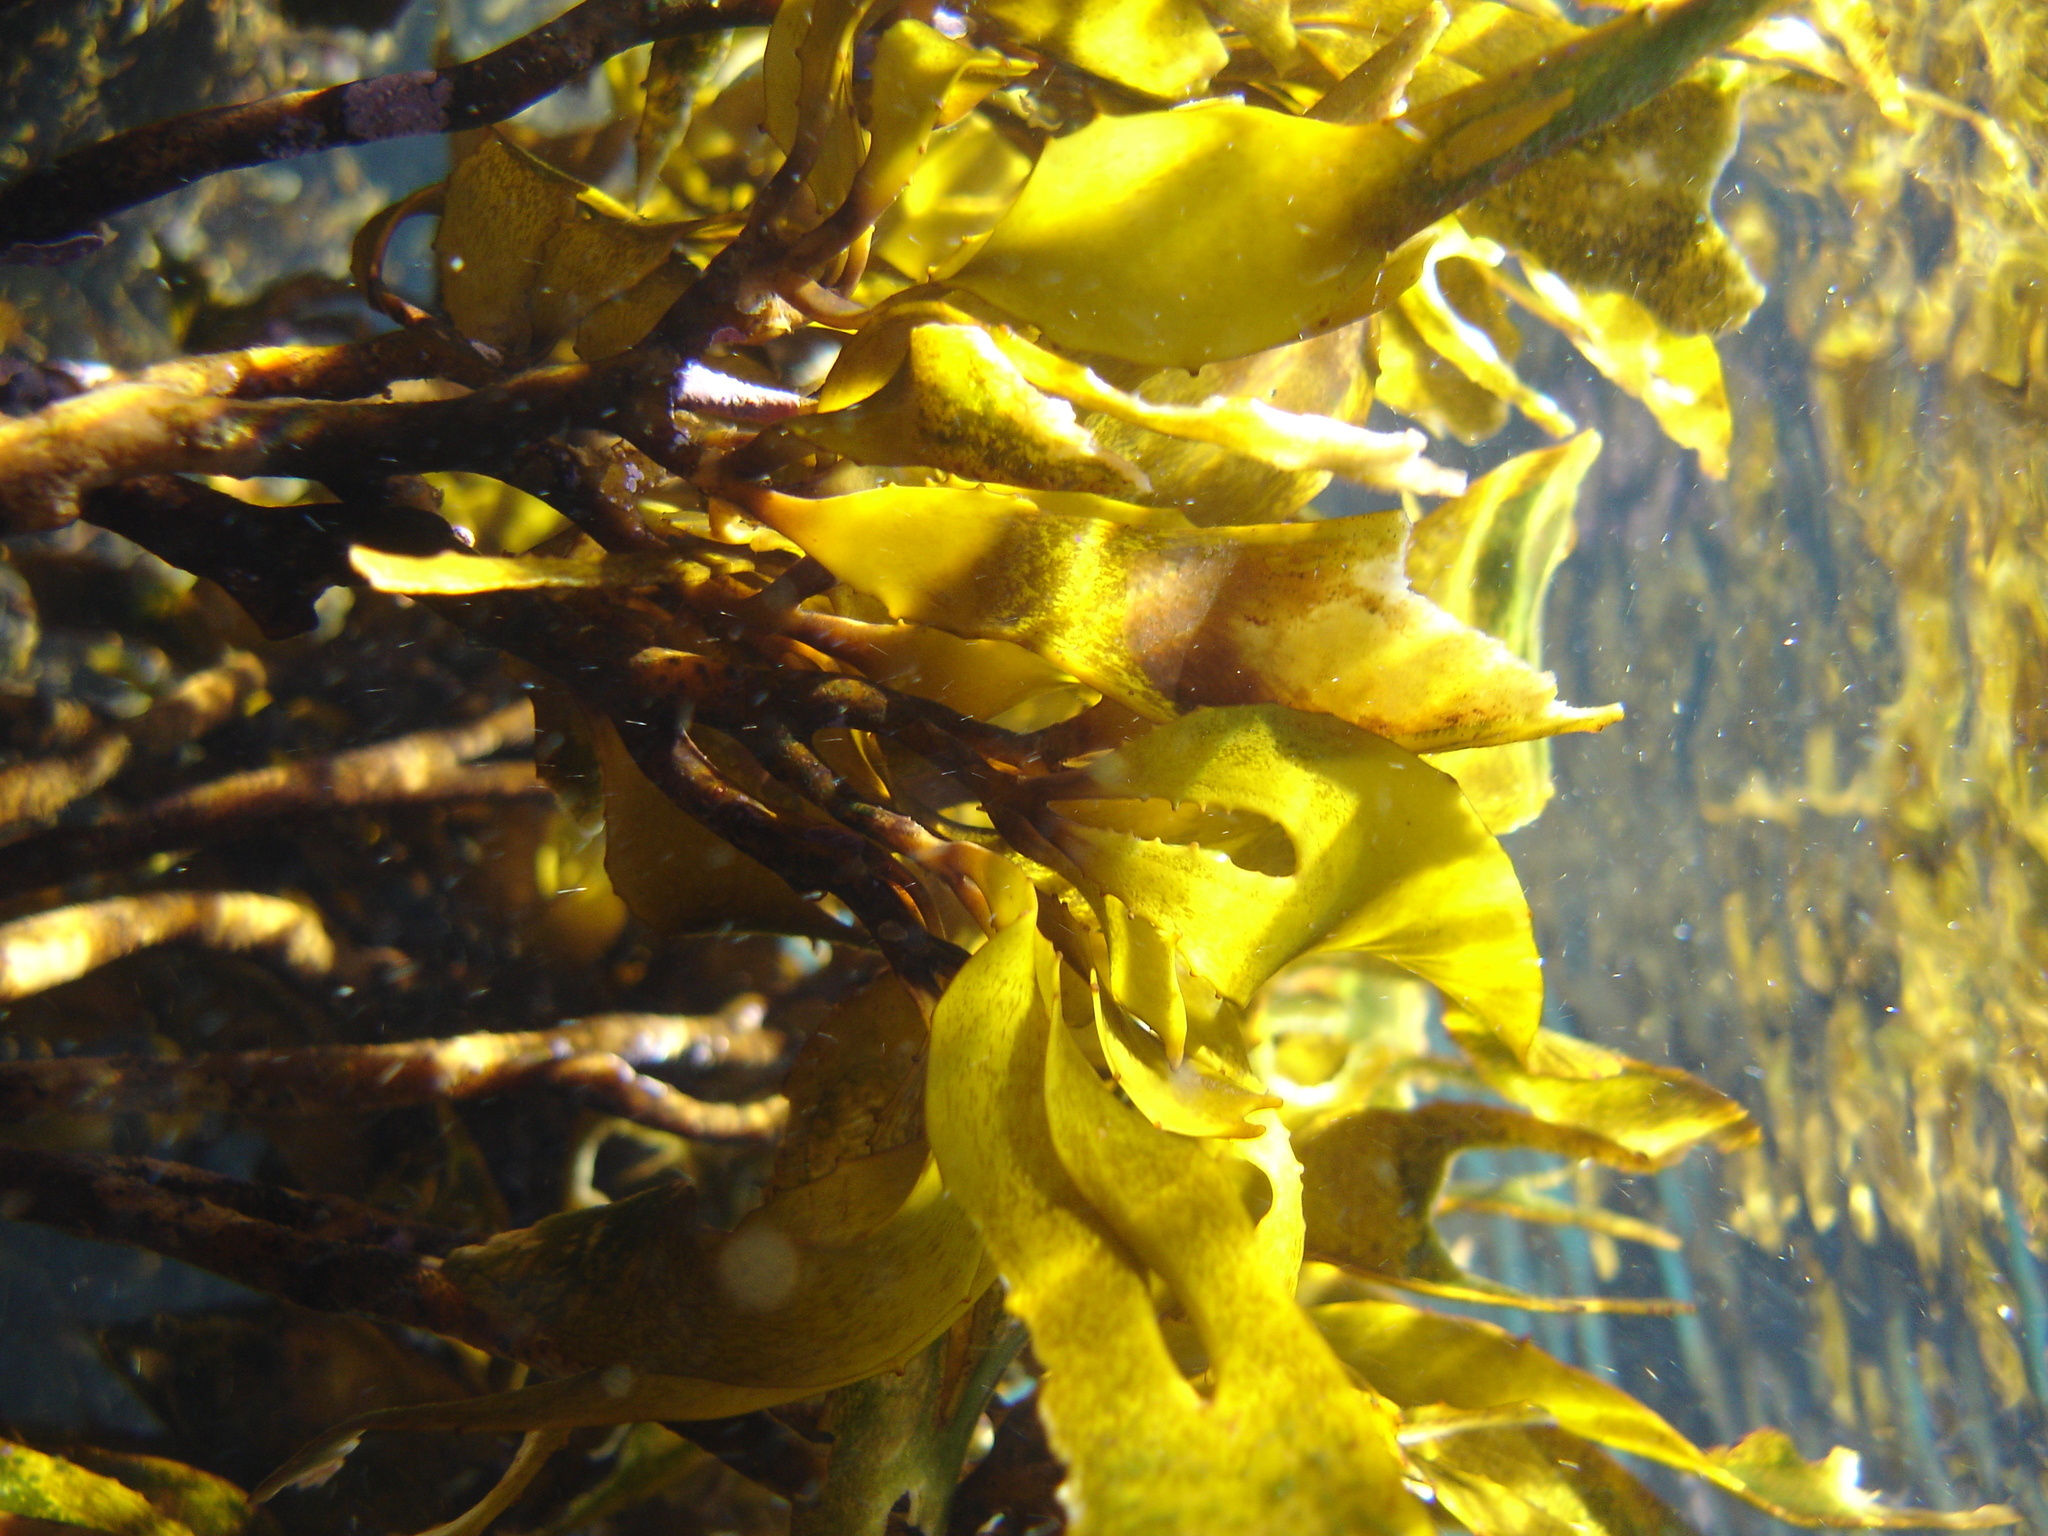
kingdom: Chromista
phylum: Ochrophyta
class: Phaeophyceae
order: Laminariales
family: Lessoniaceae
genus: Lessonia
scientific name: Lessonia variegata
